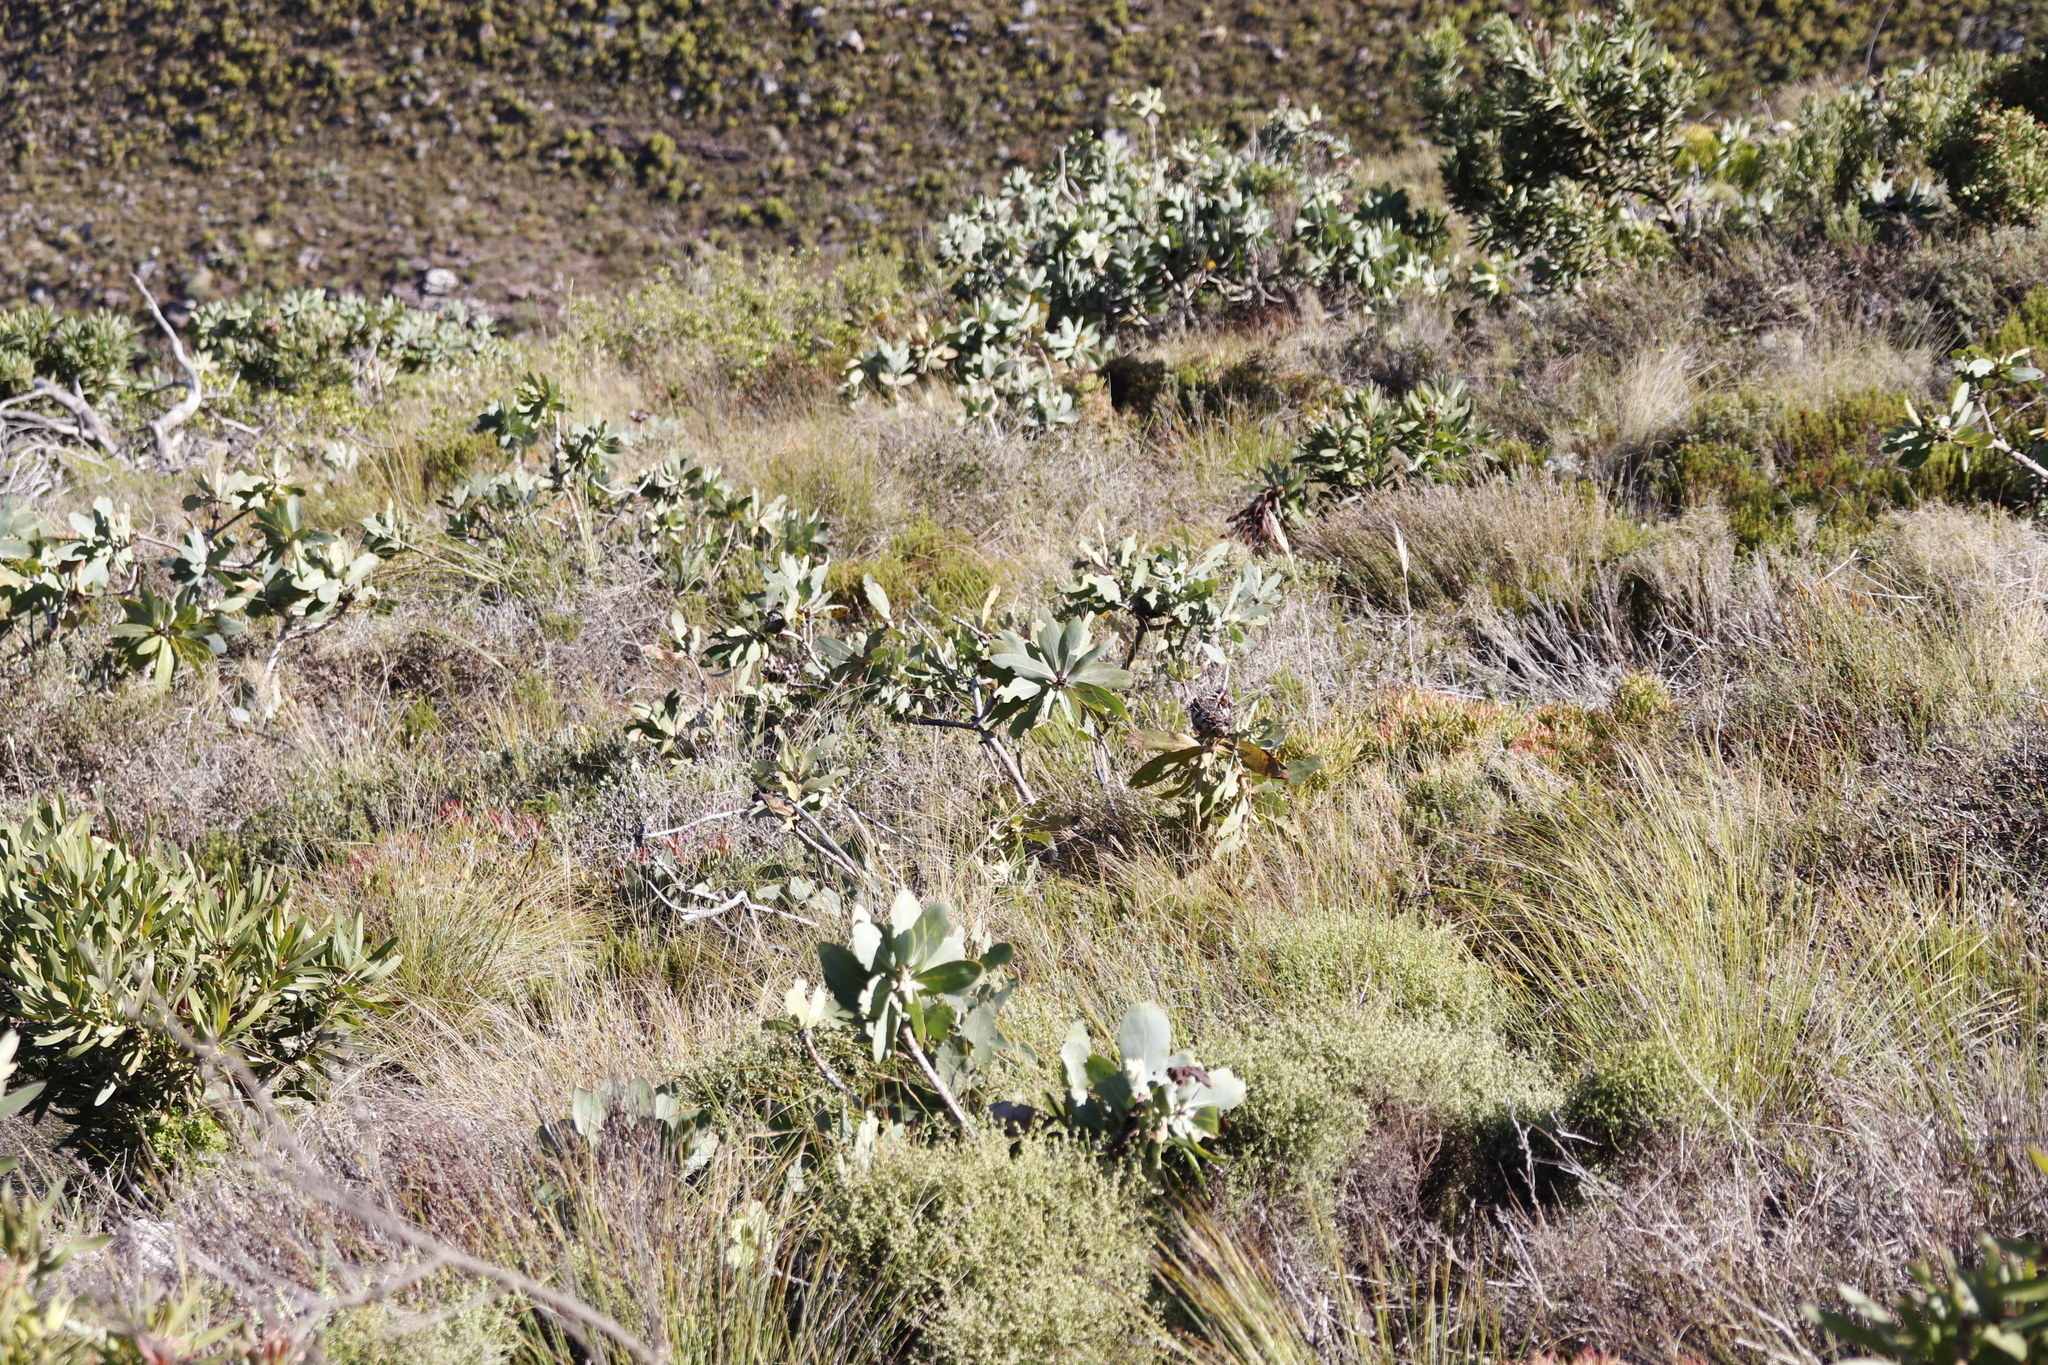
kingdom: Plantae
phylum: Tracheophyta
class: Magnoliopsida
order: Proteales
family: Proteaceae
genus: Protea
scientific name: Protea nitida
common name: Tree protea
